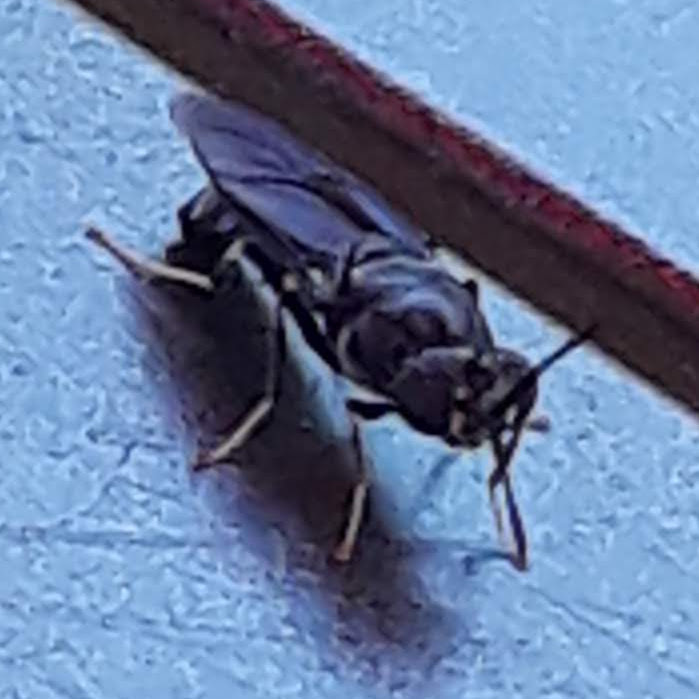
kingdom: Animalia
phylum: Arthropoda
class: Insecta
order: Diptera
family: Stratiomyidae
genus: Hermetia
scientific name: Hermetia illucens
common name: Black soldier fly
